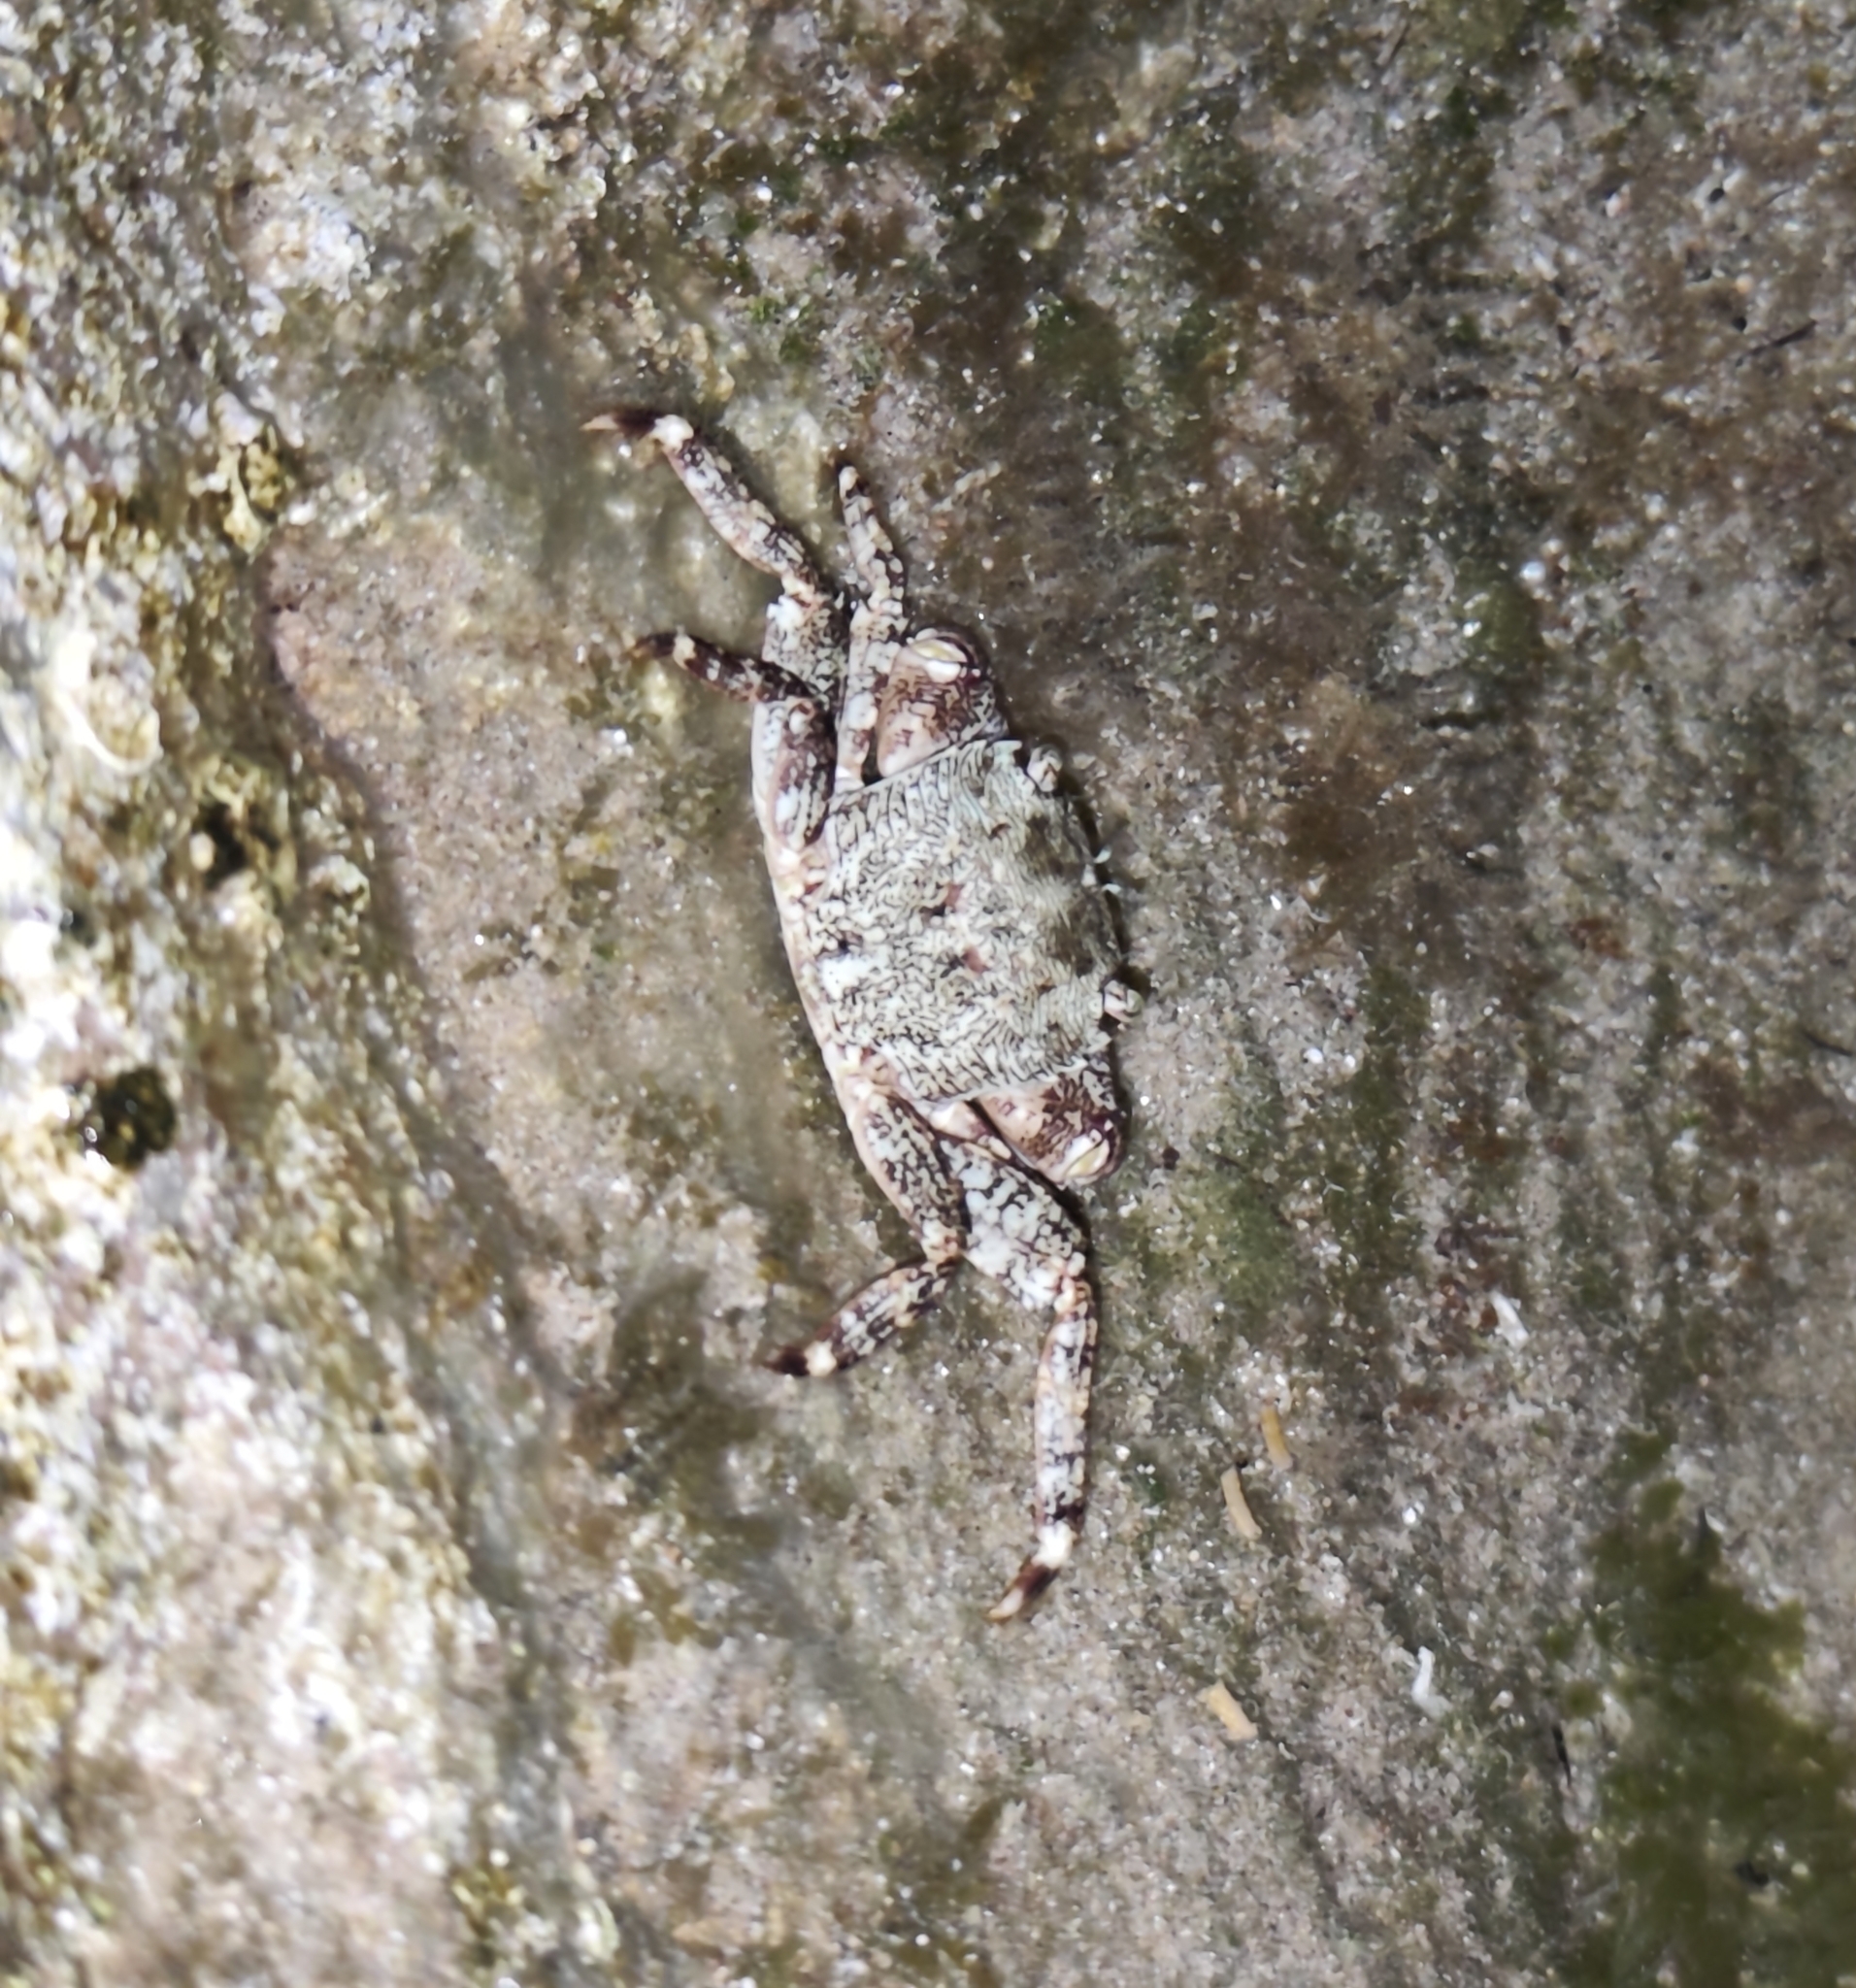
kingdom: Animalia
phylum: Arthropoda
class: Malacostraca
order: Decapoda
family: Grapsidae
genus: Pachygrapsus
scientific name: Pachygrapsus marmoratus
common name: Marbled rock crab
